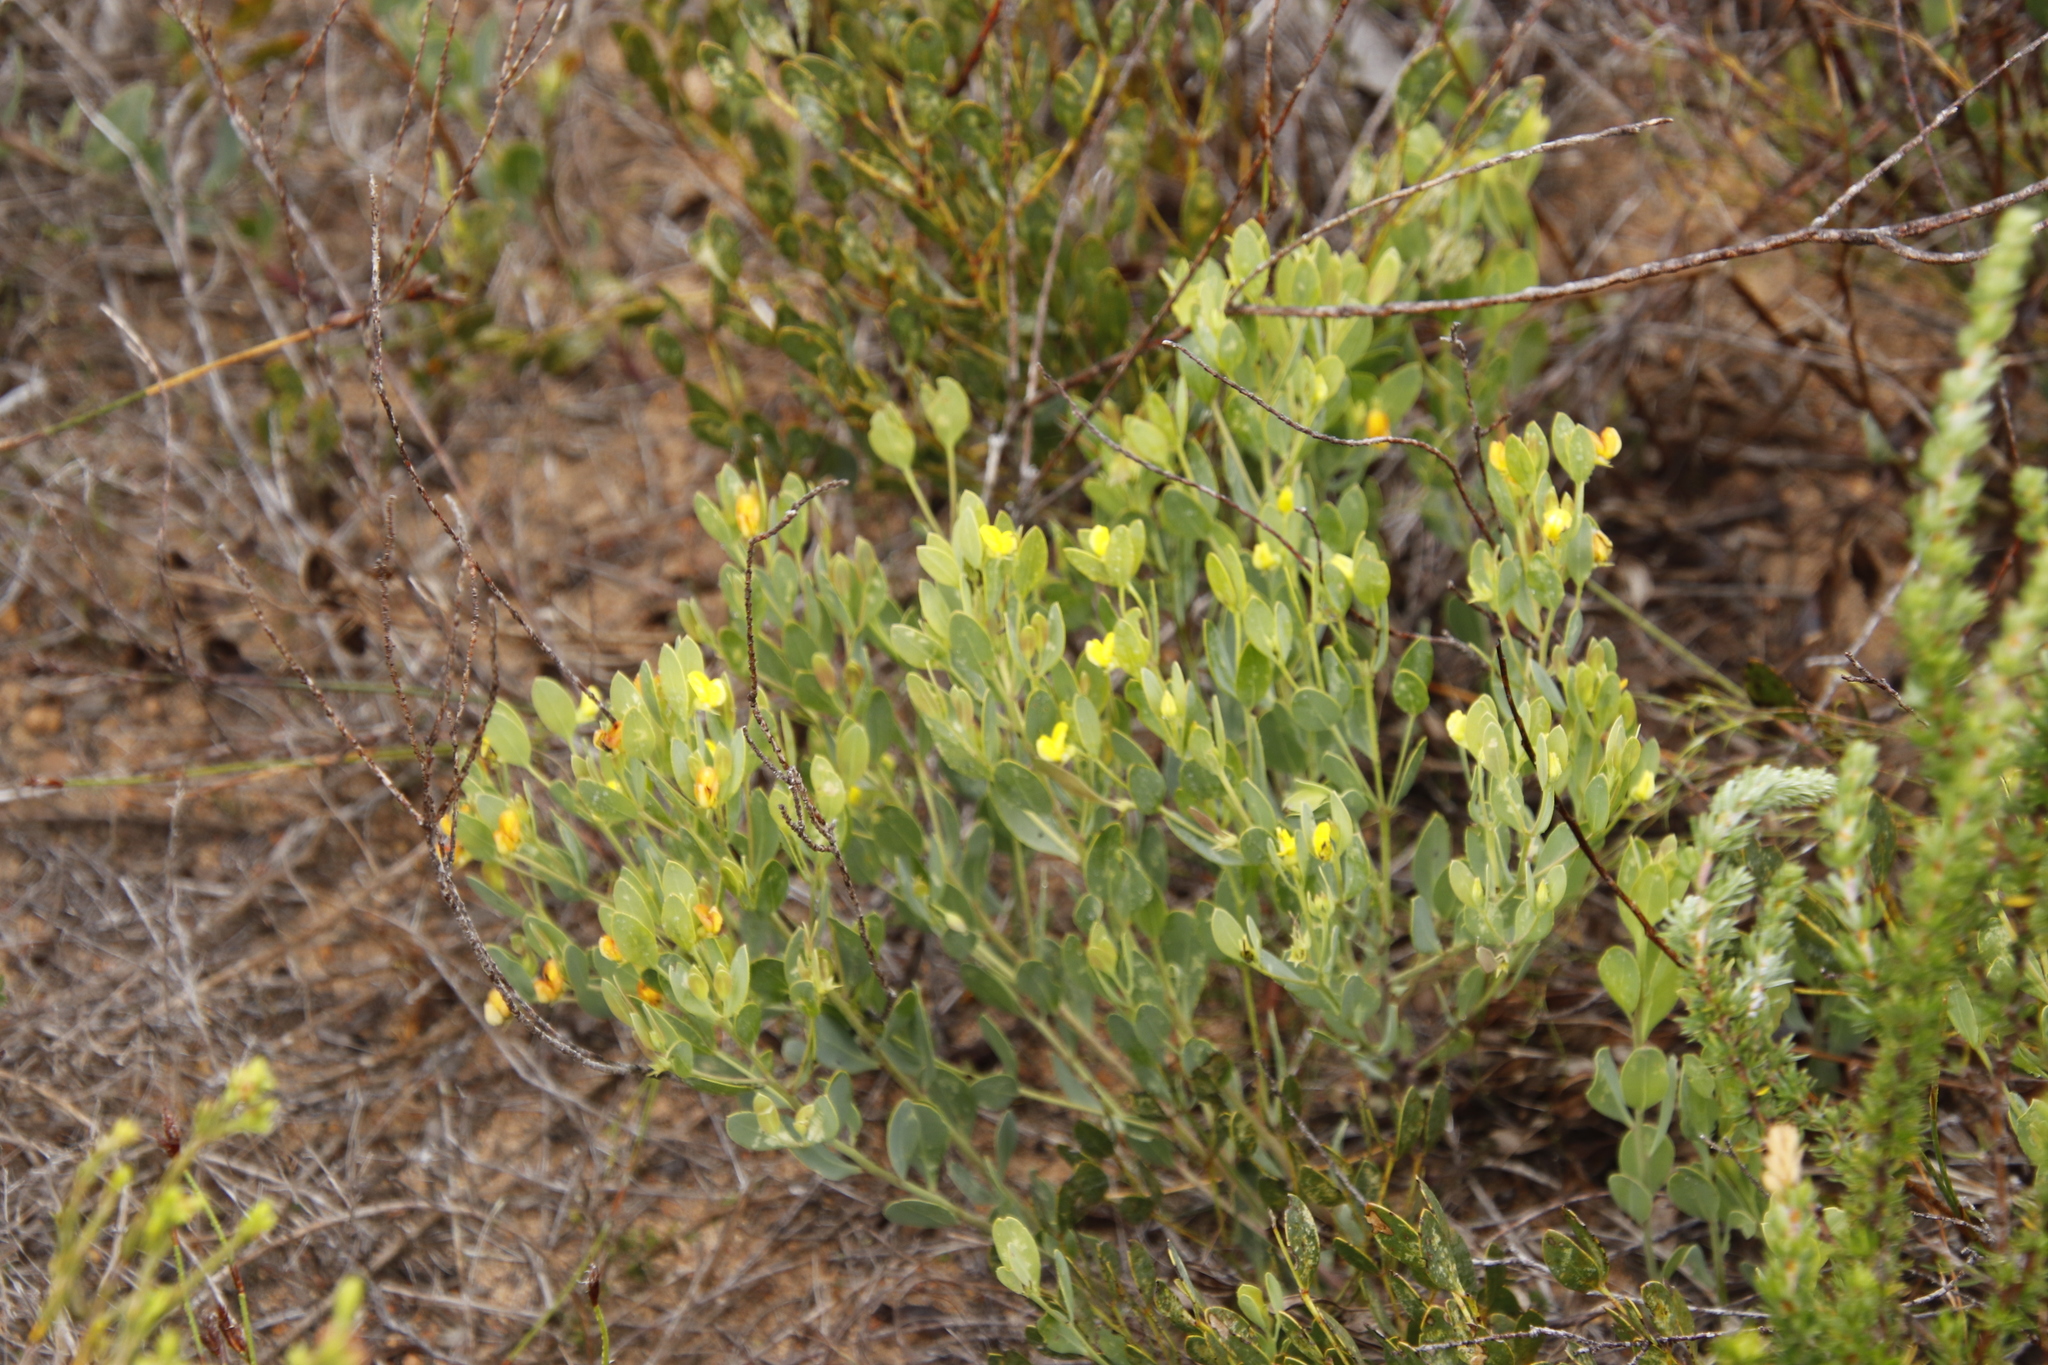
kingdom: Plantae
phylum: Tracheophyta
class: Magnoliopsida
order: Fabales
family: Fabaceae
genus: Rafnia
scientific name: Rafnia angulata
